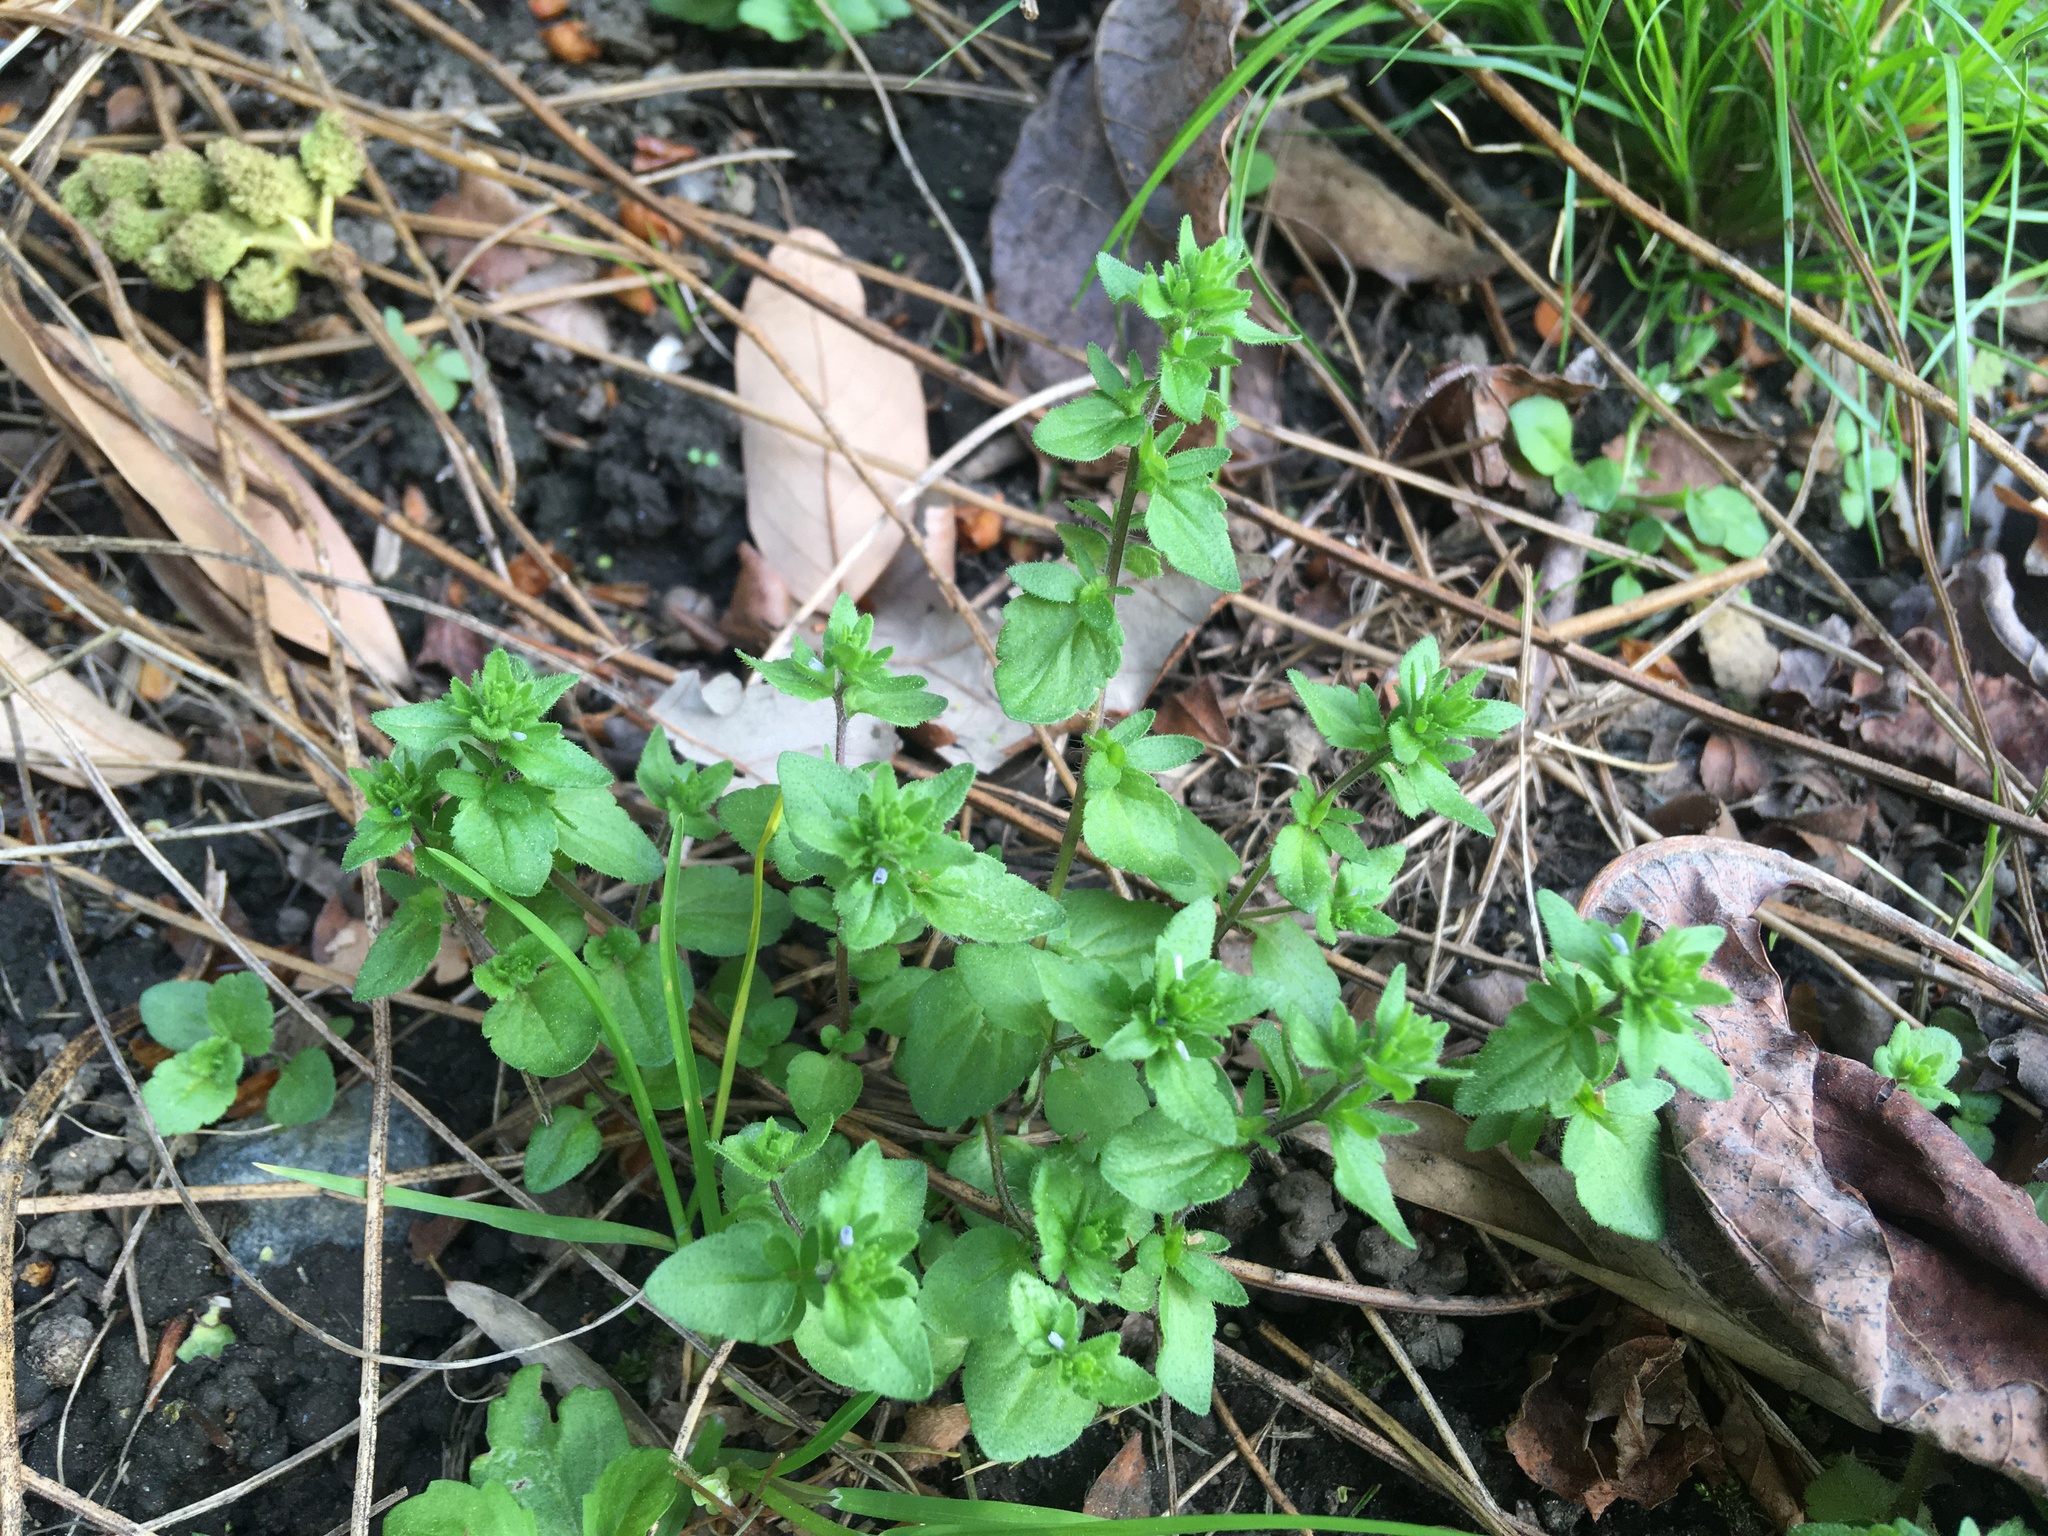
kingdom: Plantae
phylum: Tracheophyta
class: Magnoliopsida
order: Lamiales
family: Plantaginaceae
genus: Veronica
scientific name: Veronica arvensis
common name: Corn speedwell
